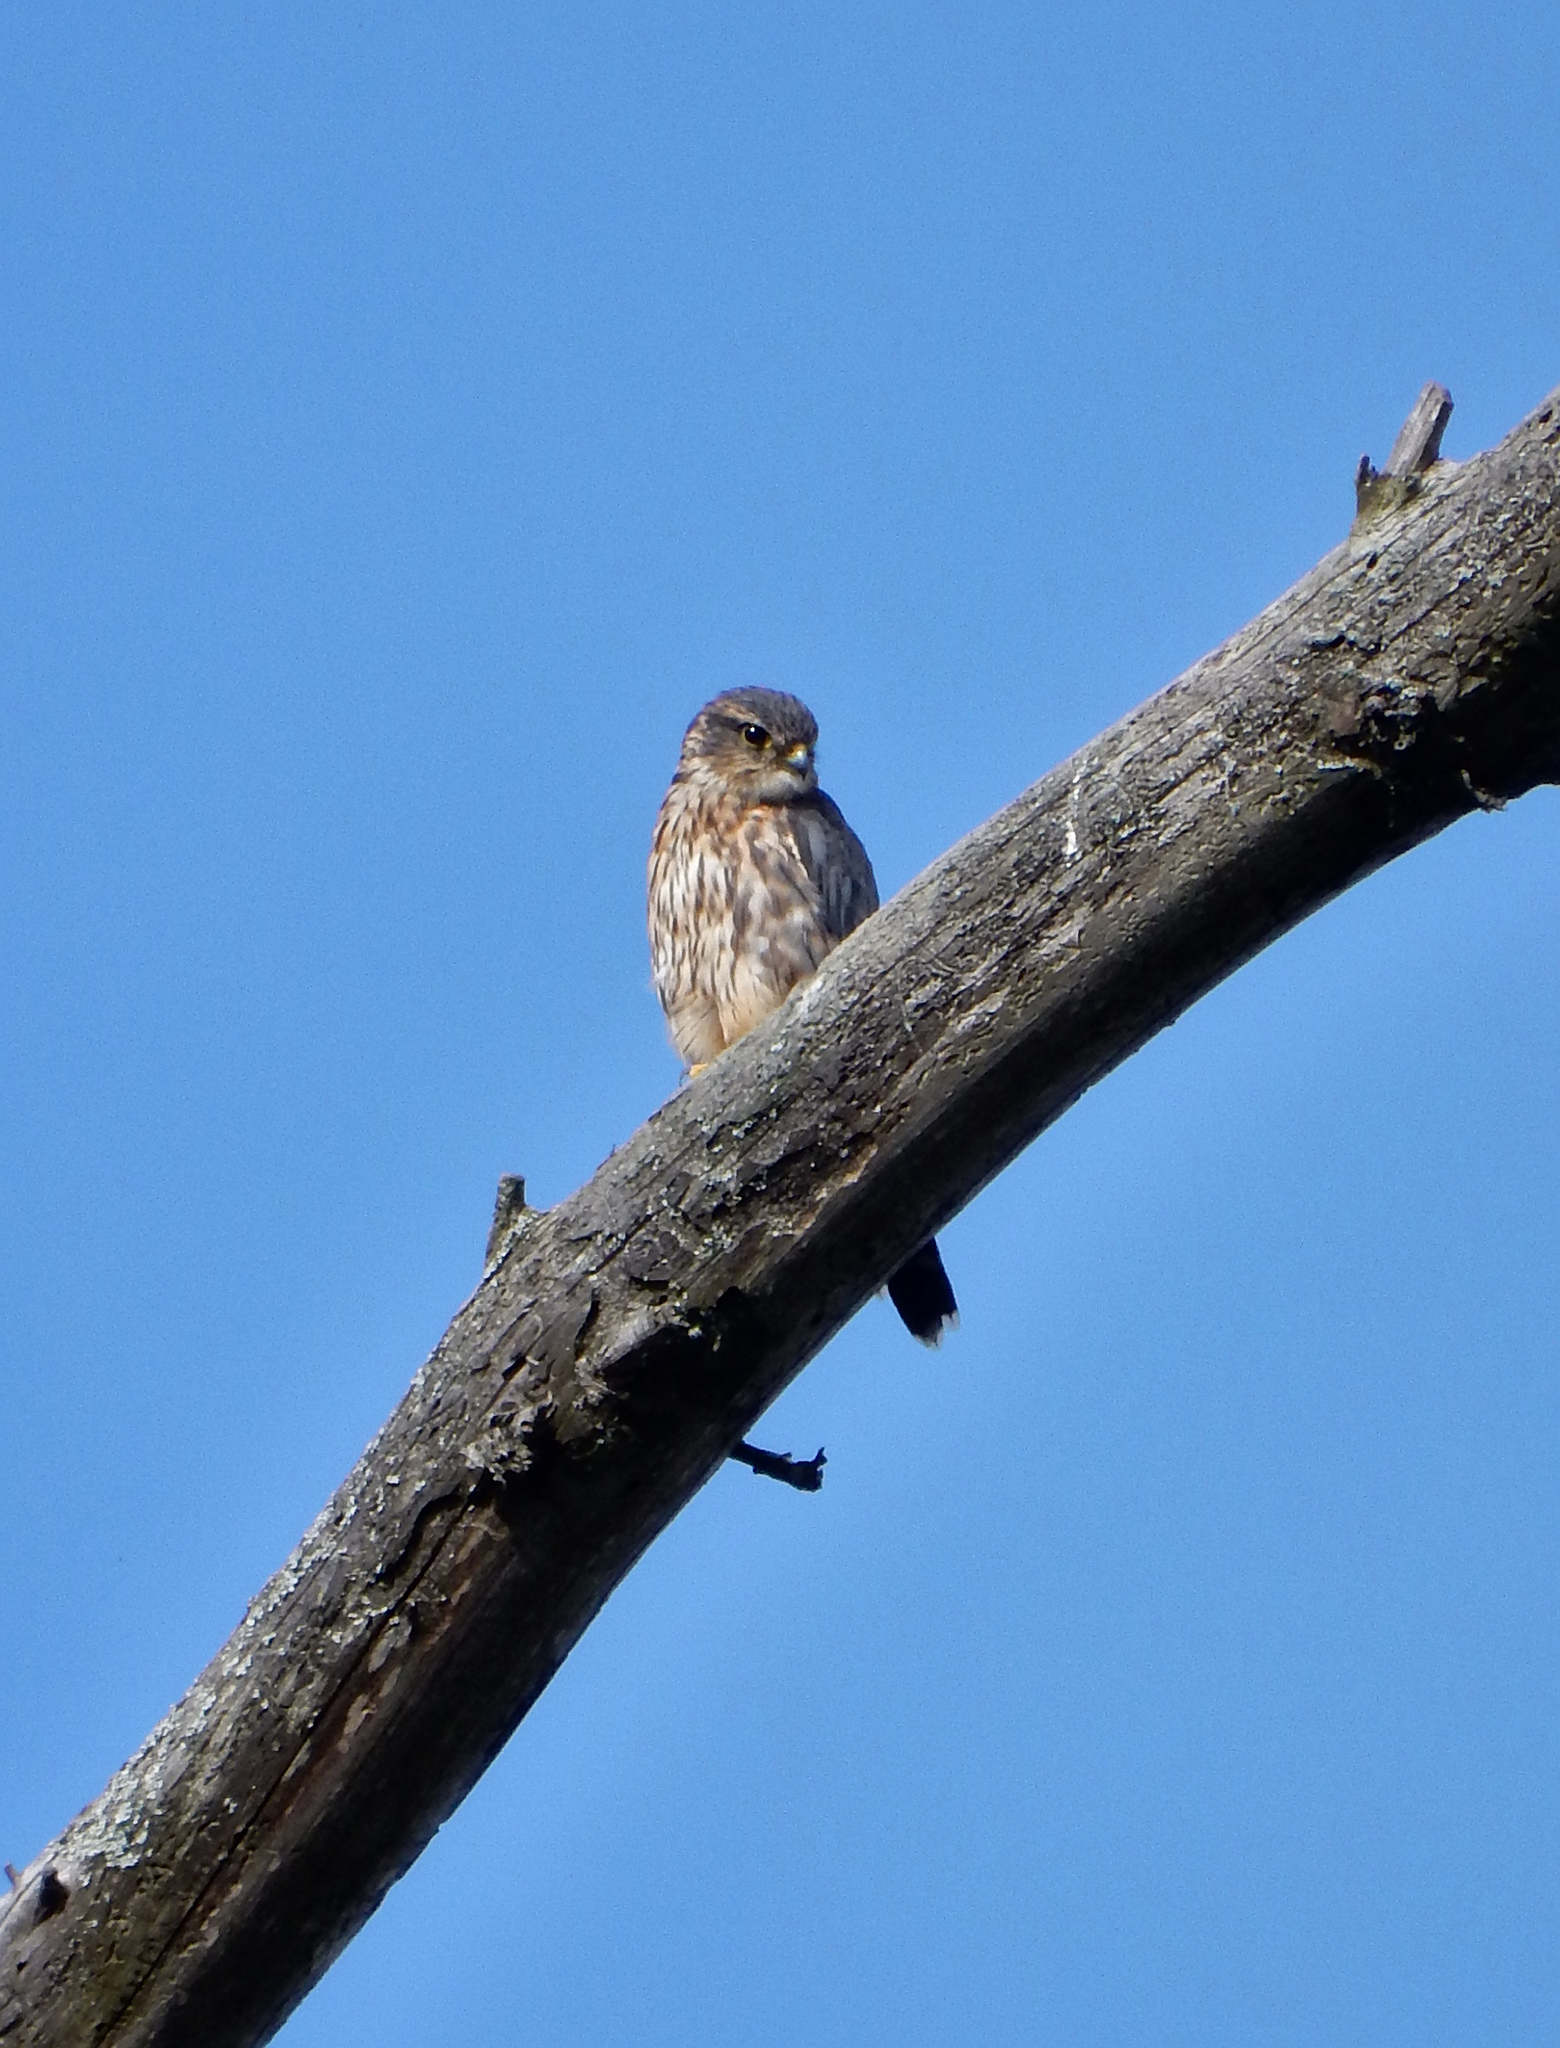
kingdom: Animalia
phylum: Chordata
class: Aves
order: Falconiformes
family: Falconidae
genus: Falco
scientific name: Falco columbarius
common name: Merlin
